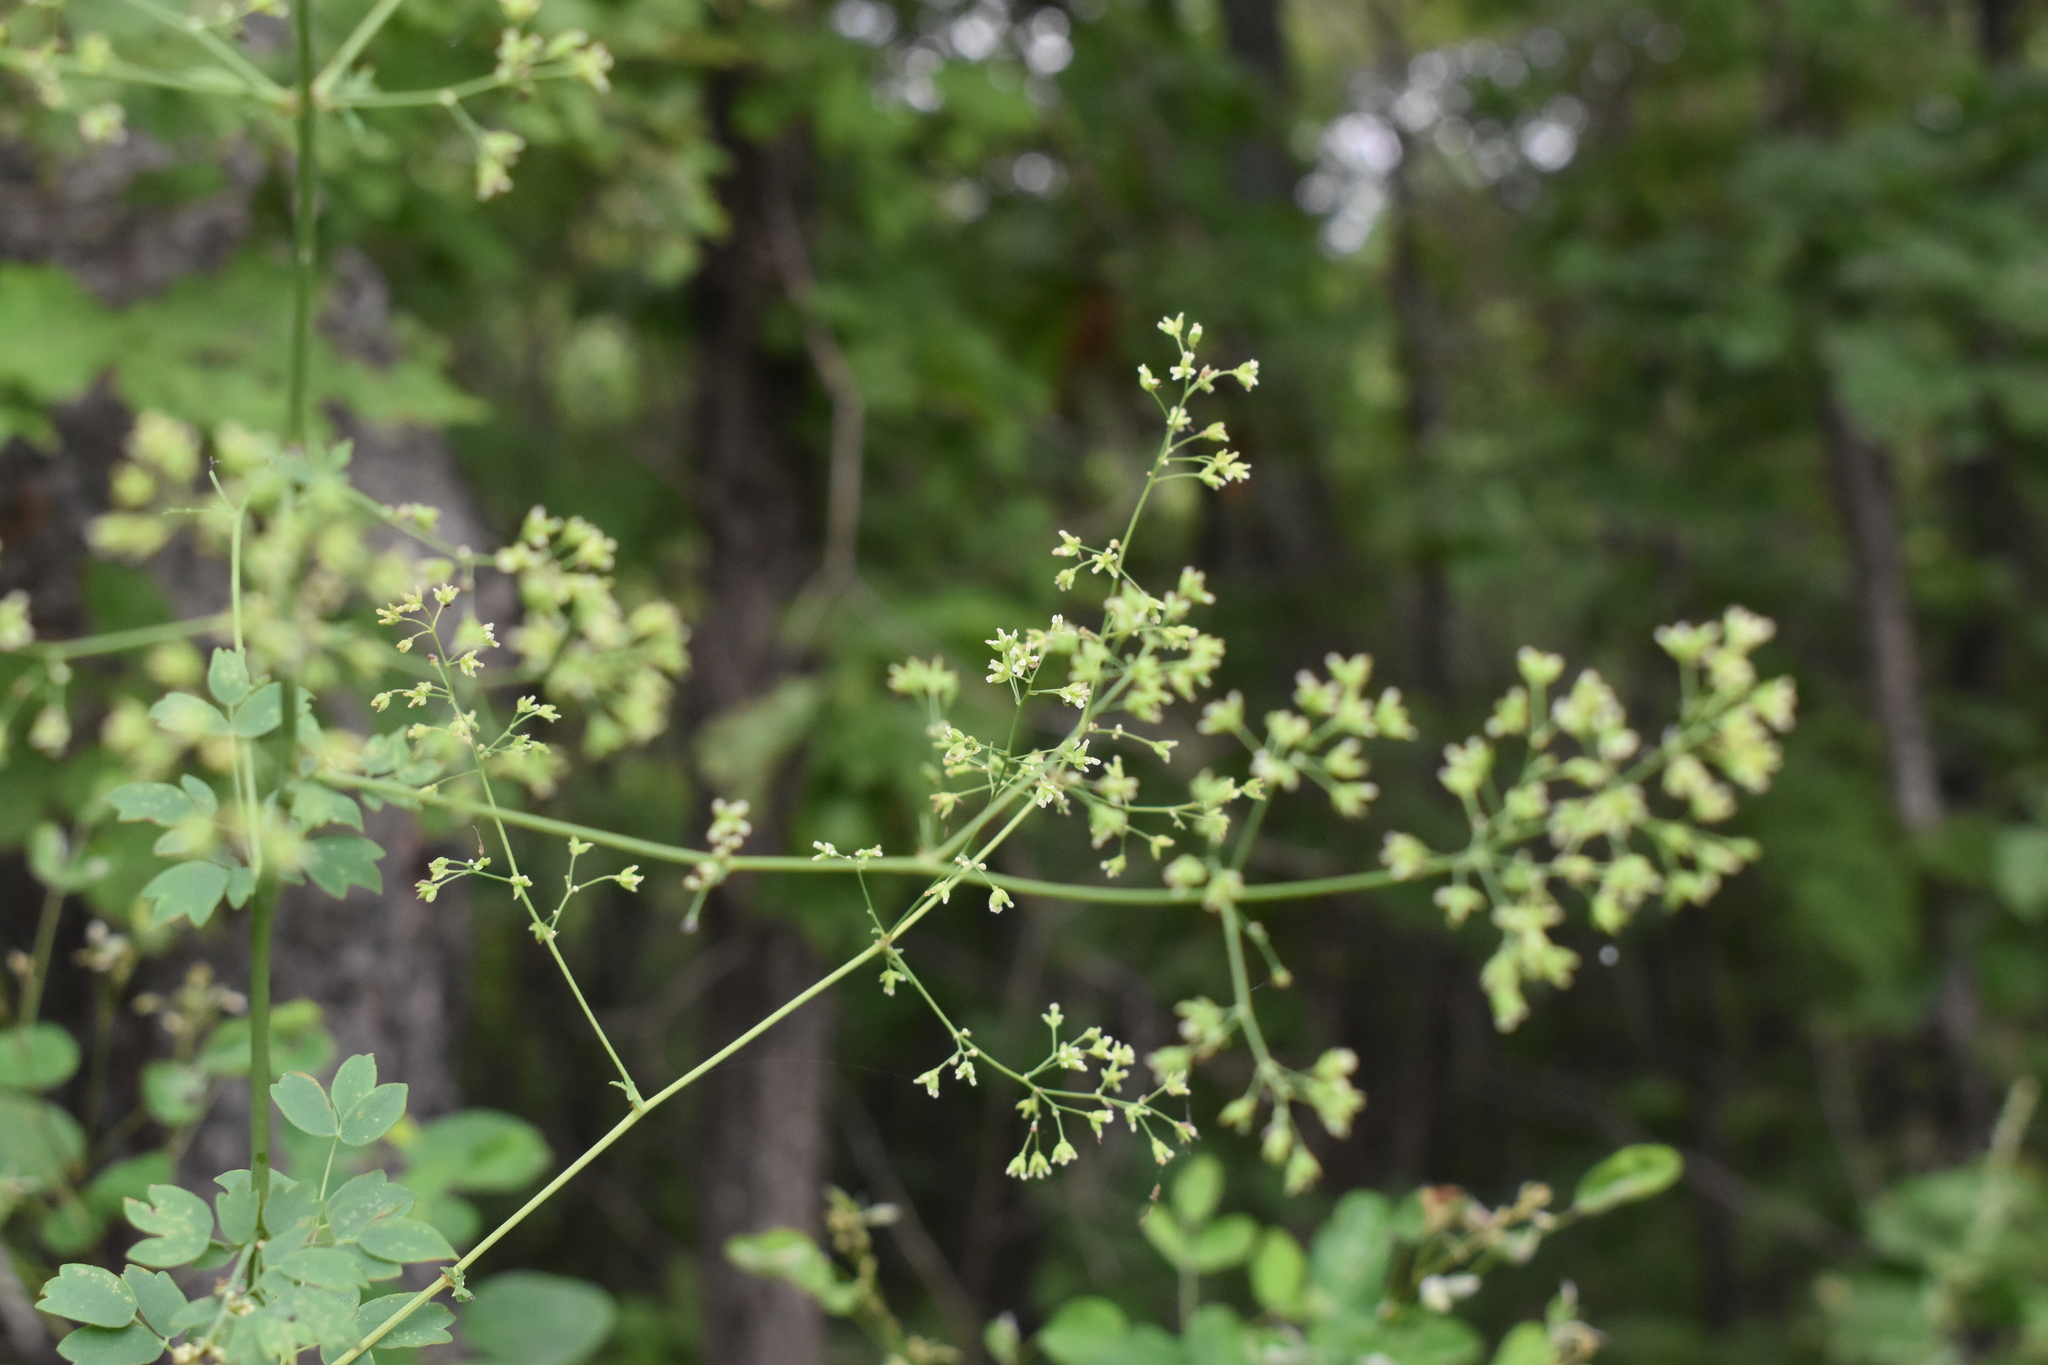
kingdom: Plantae
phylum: Tracheophyta
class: Magnoliopsida
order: Ranunculales
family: Ranunculaceae
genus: Thalictrum
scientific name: Thalictrum minus
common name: Lesser meadow-rue
